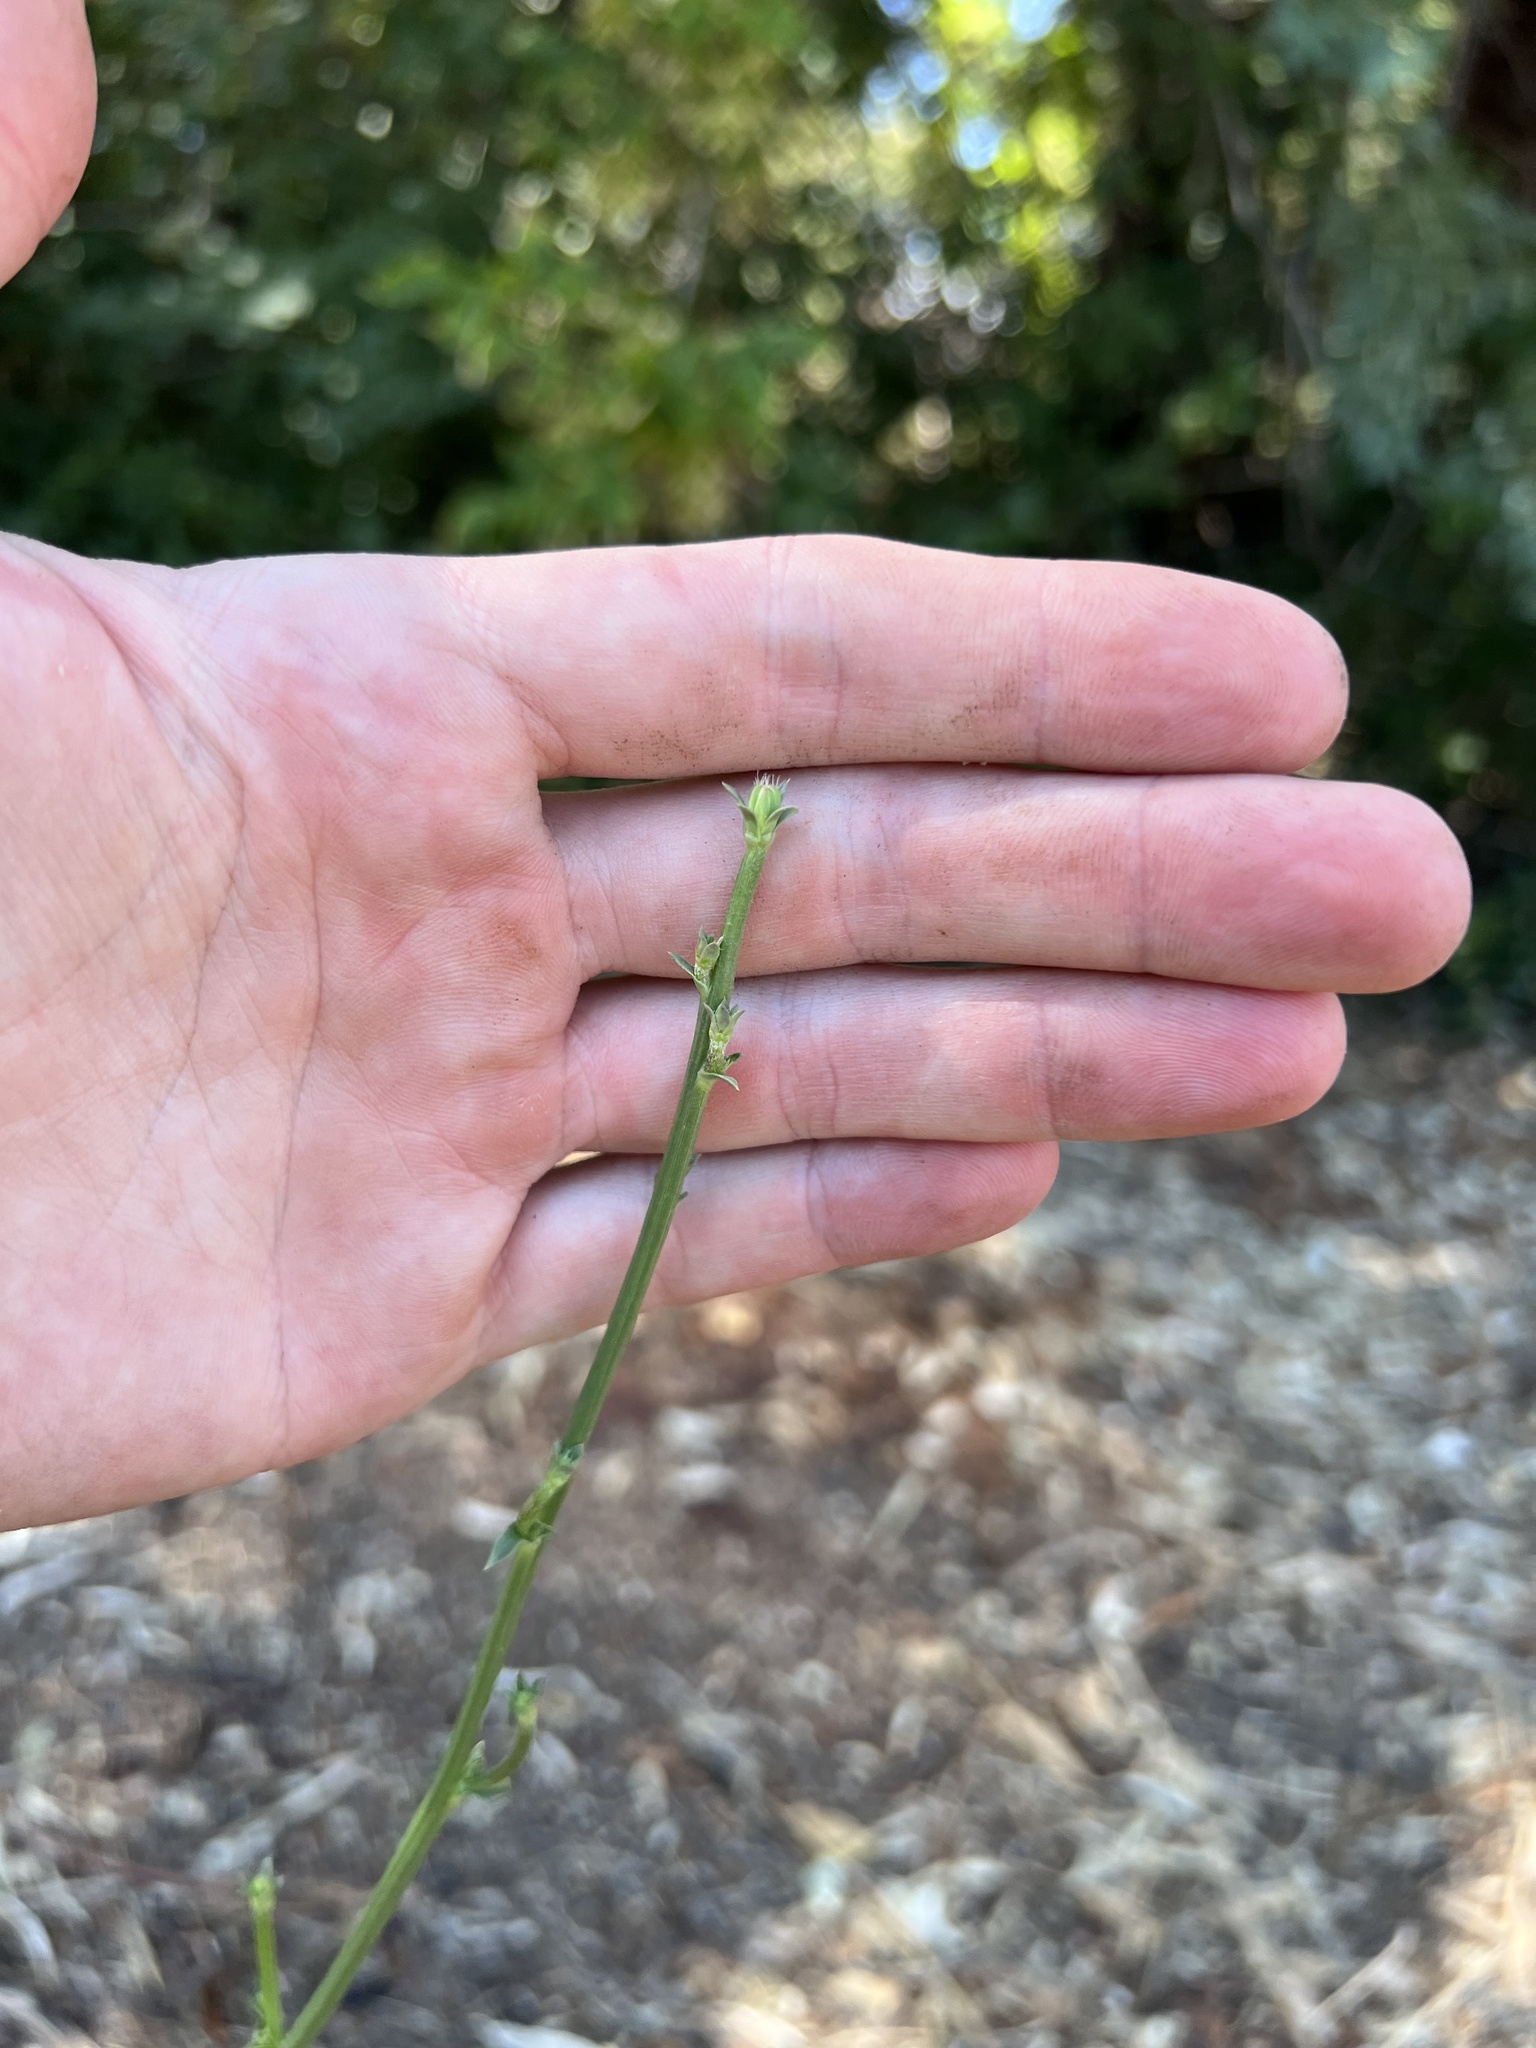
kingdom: Plantae
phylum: Tracheophyta
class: Magnoliopsida
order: Asterales
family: Asteraceae
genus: Cichorium
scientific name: Cichorium intybus
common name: Chicory
